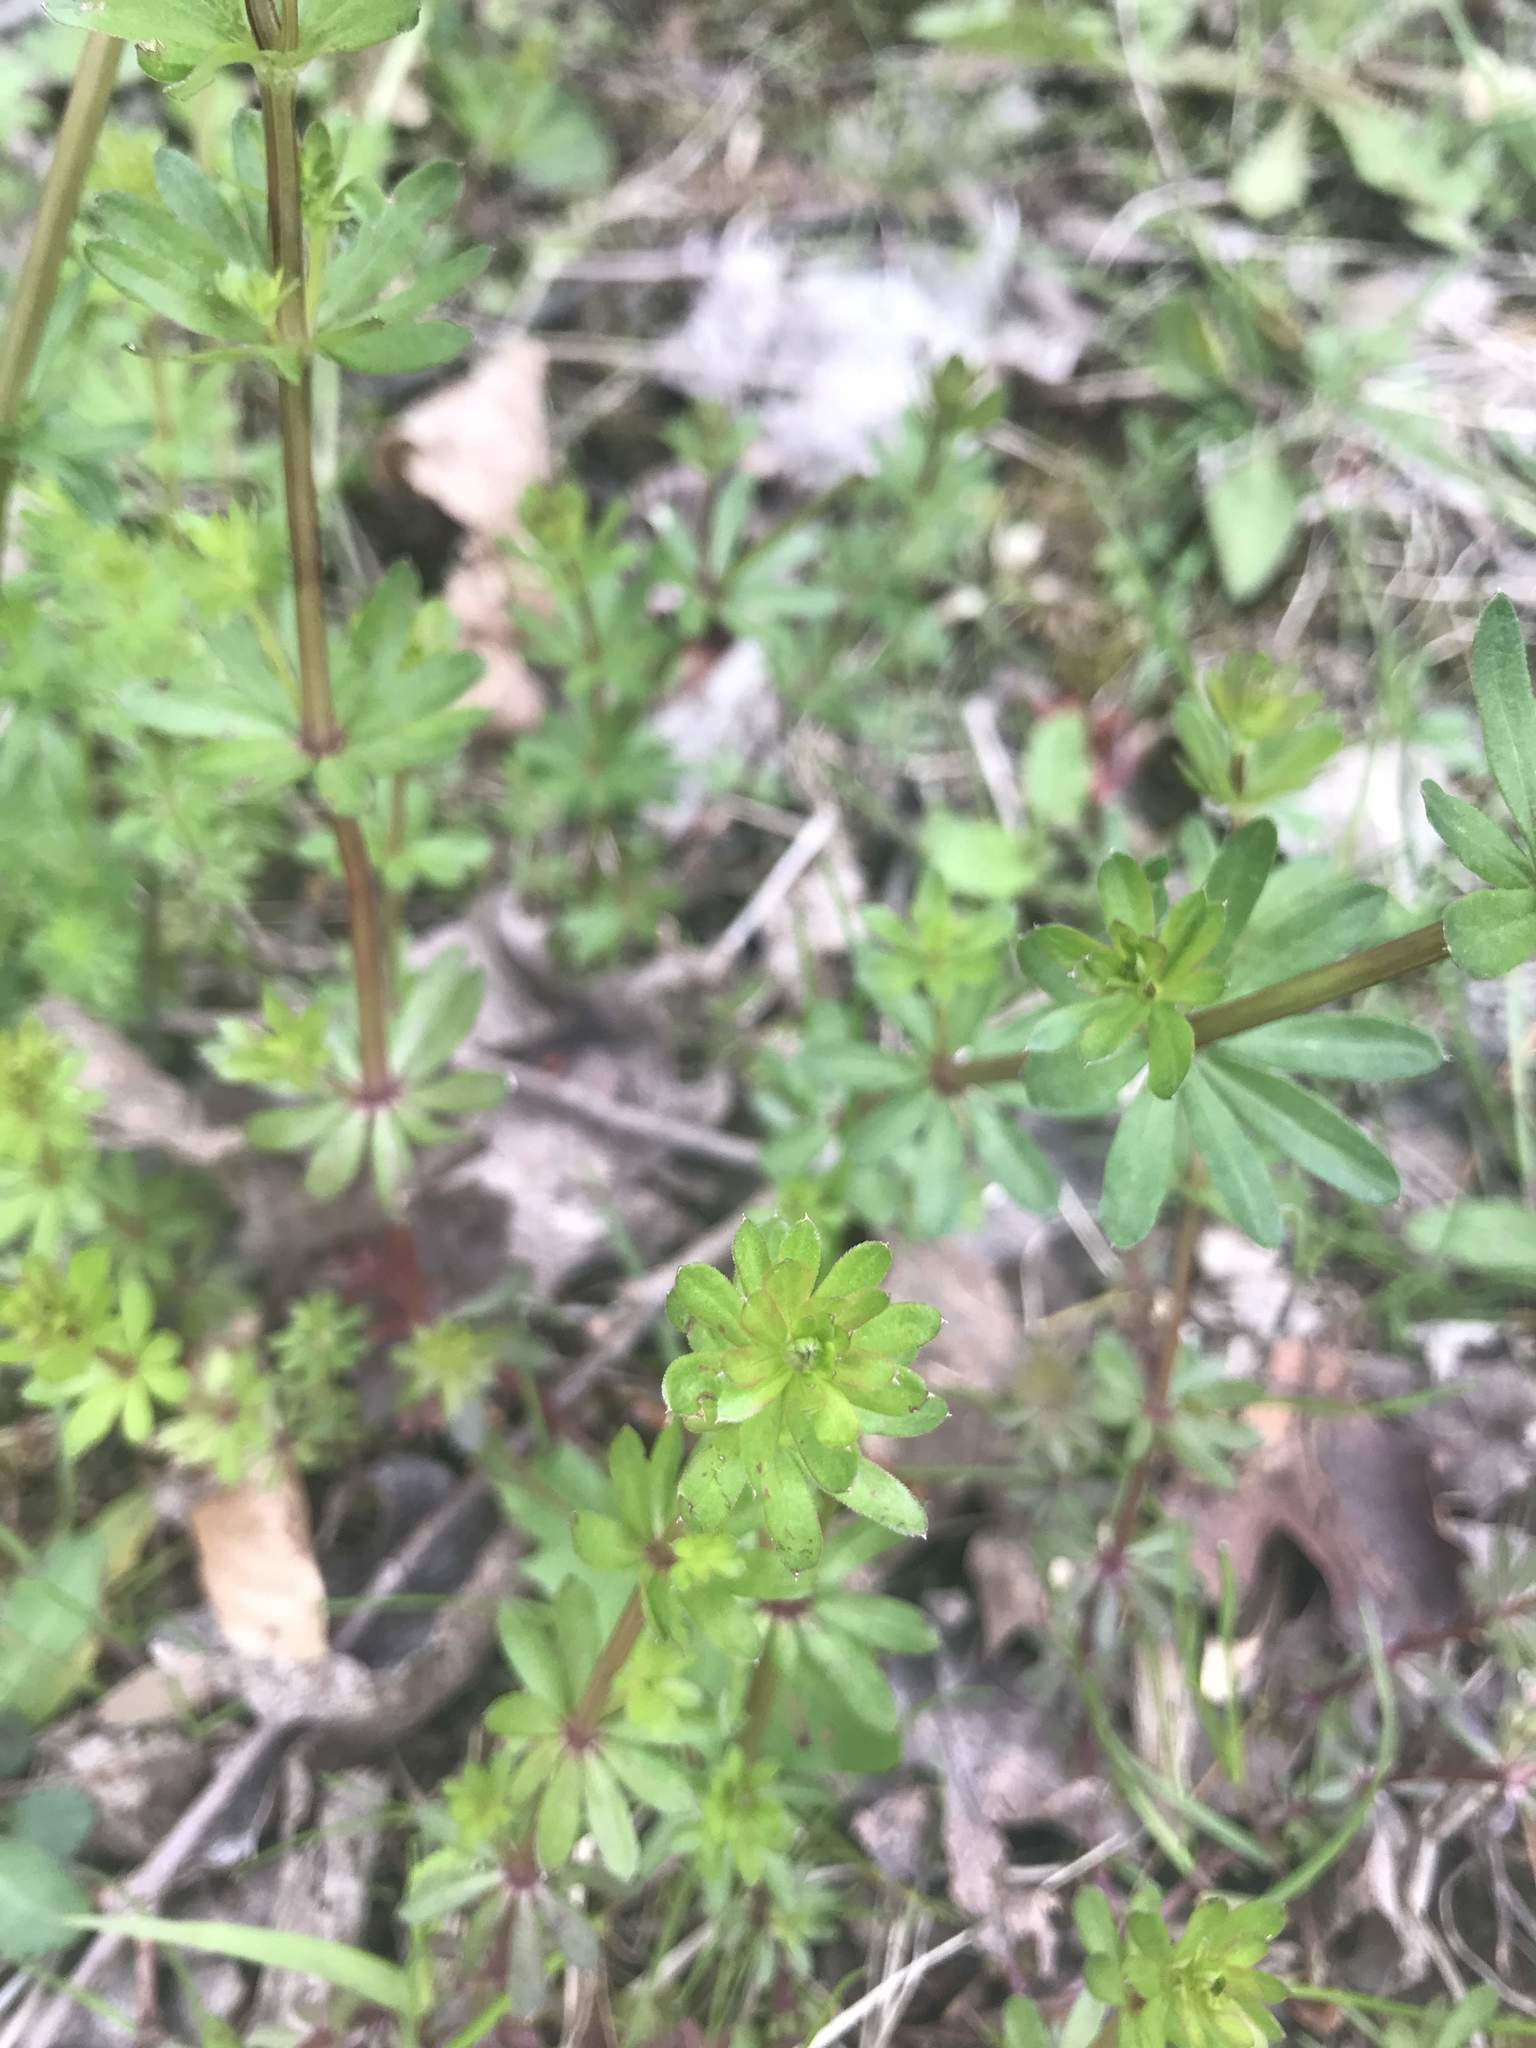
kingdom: Plantae
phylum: Tracheophyta
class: Magnoliopsida
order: Gentianales
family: Rubiaceae
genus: Galium
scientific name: Galium mollugo
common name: Hedge bedstraw
